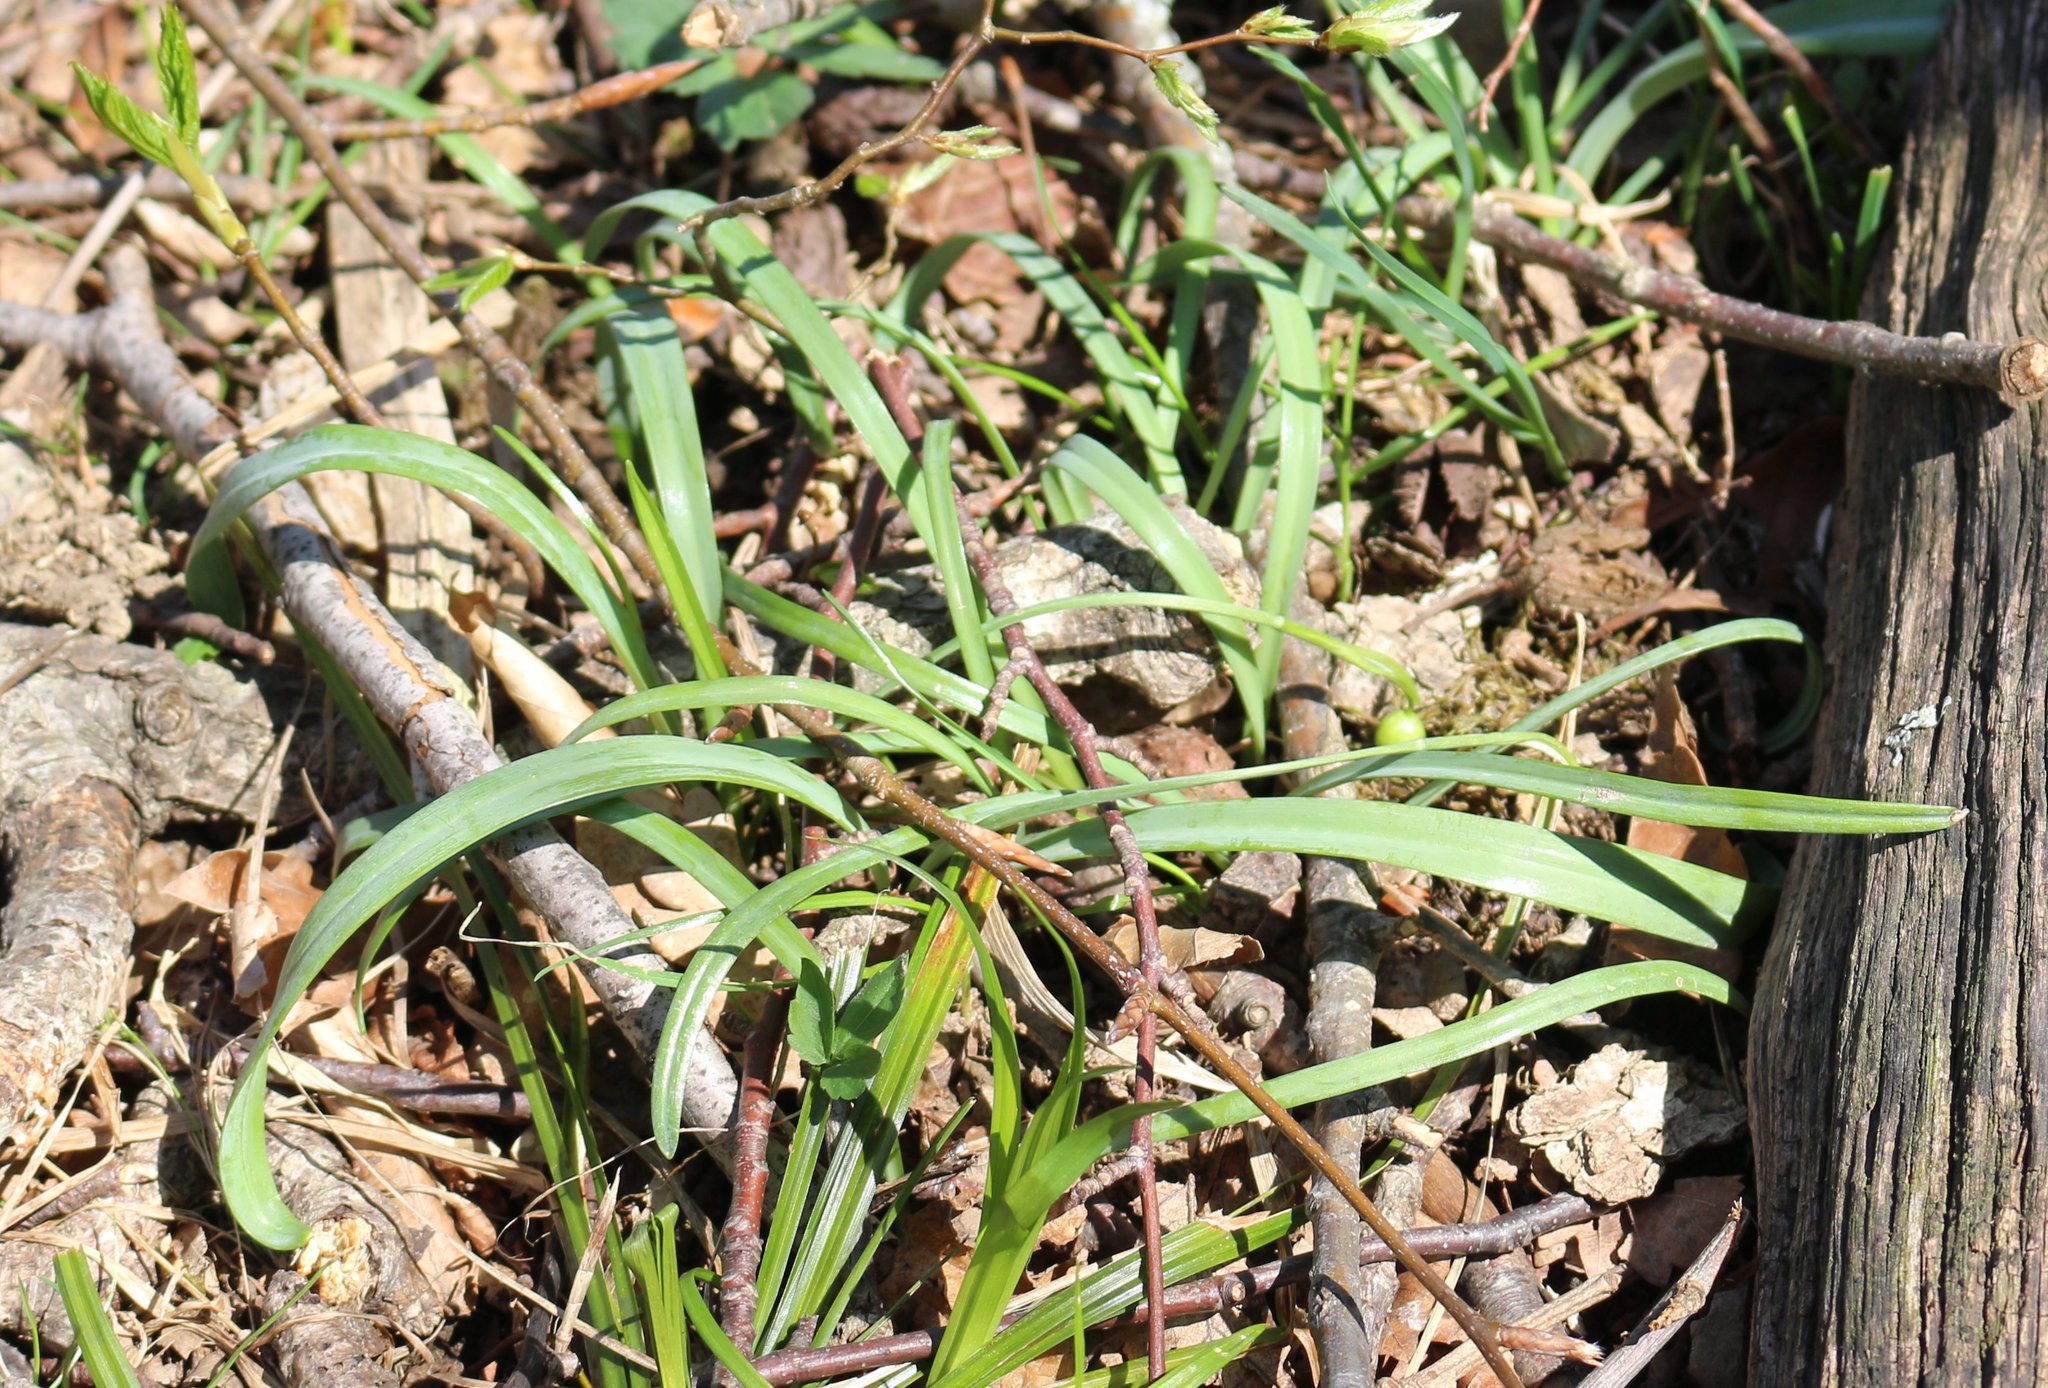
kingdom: Plantae
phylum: Tracheophyta
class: Liliopsida
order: Asparagales
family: Amaryllidaceae
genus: Galanthus
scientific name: Galanthus alpinus
